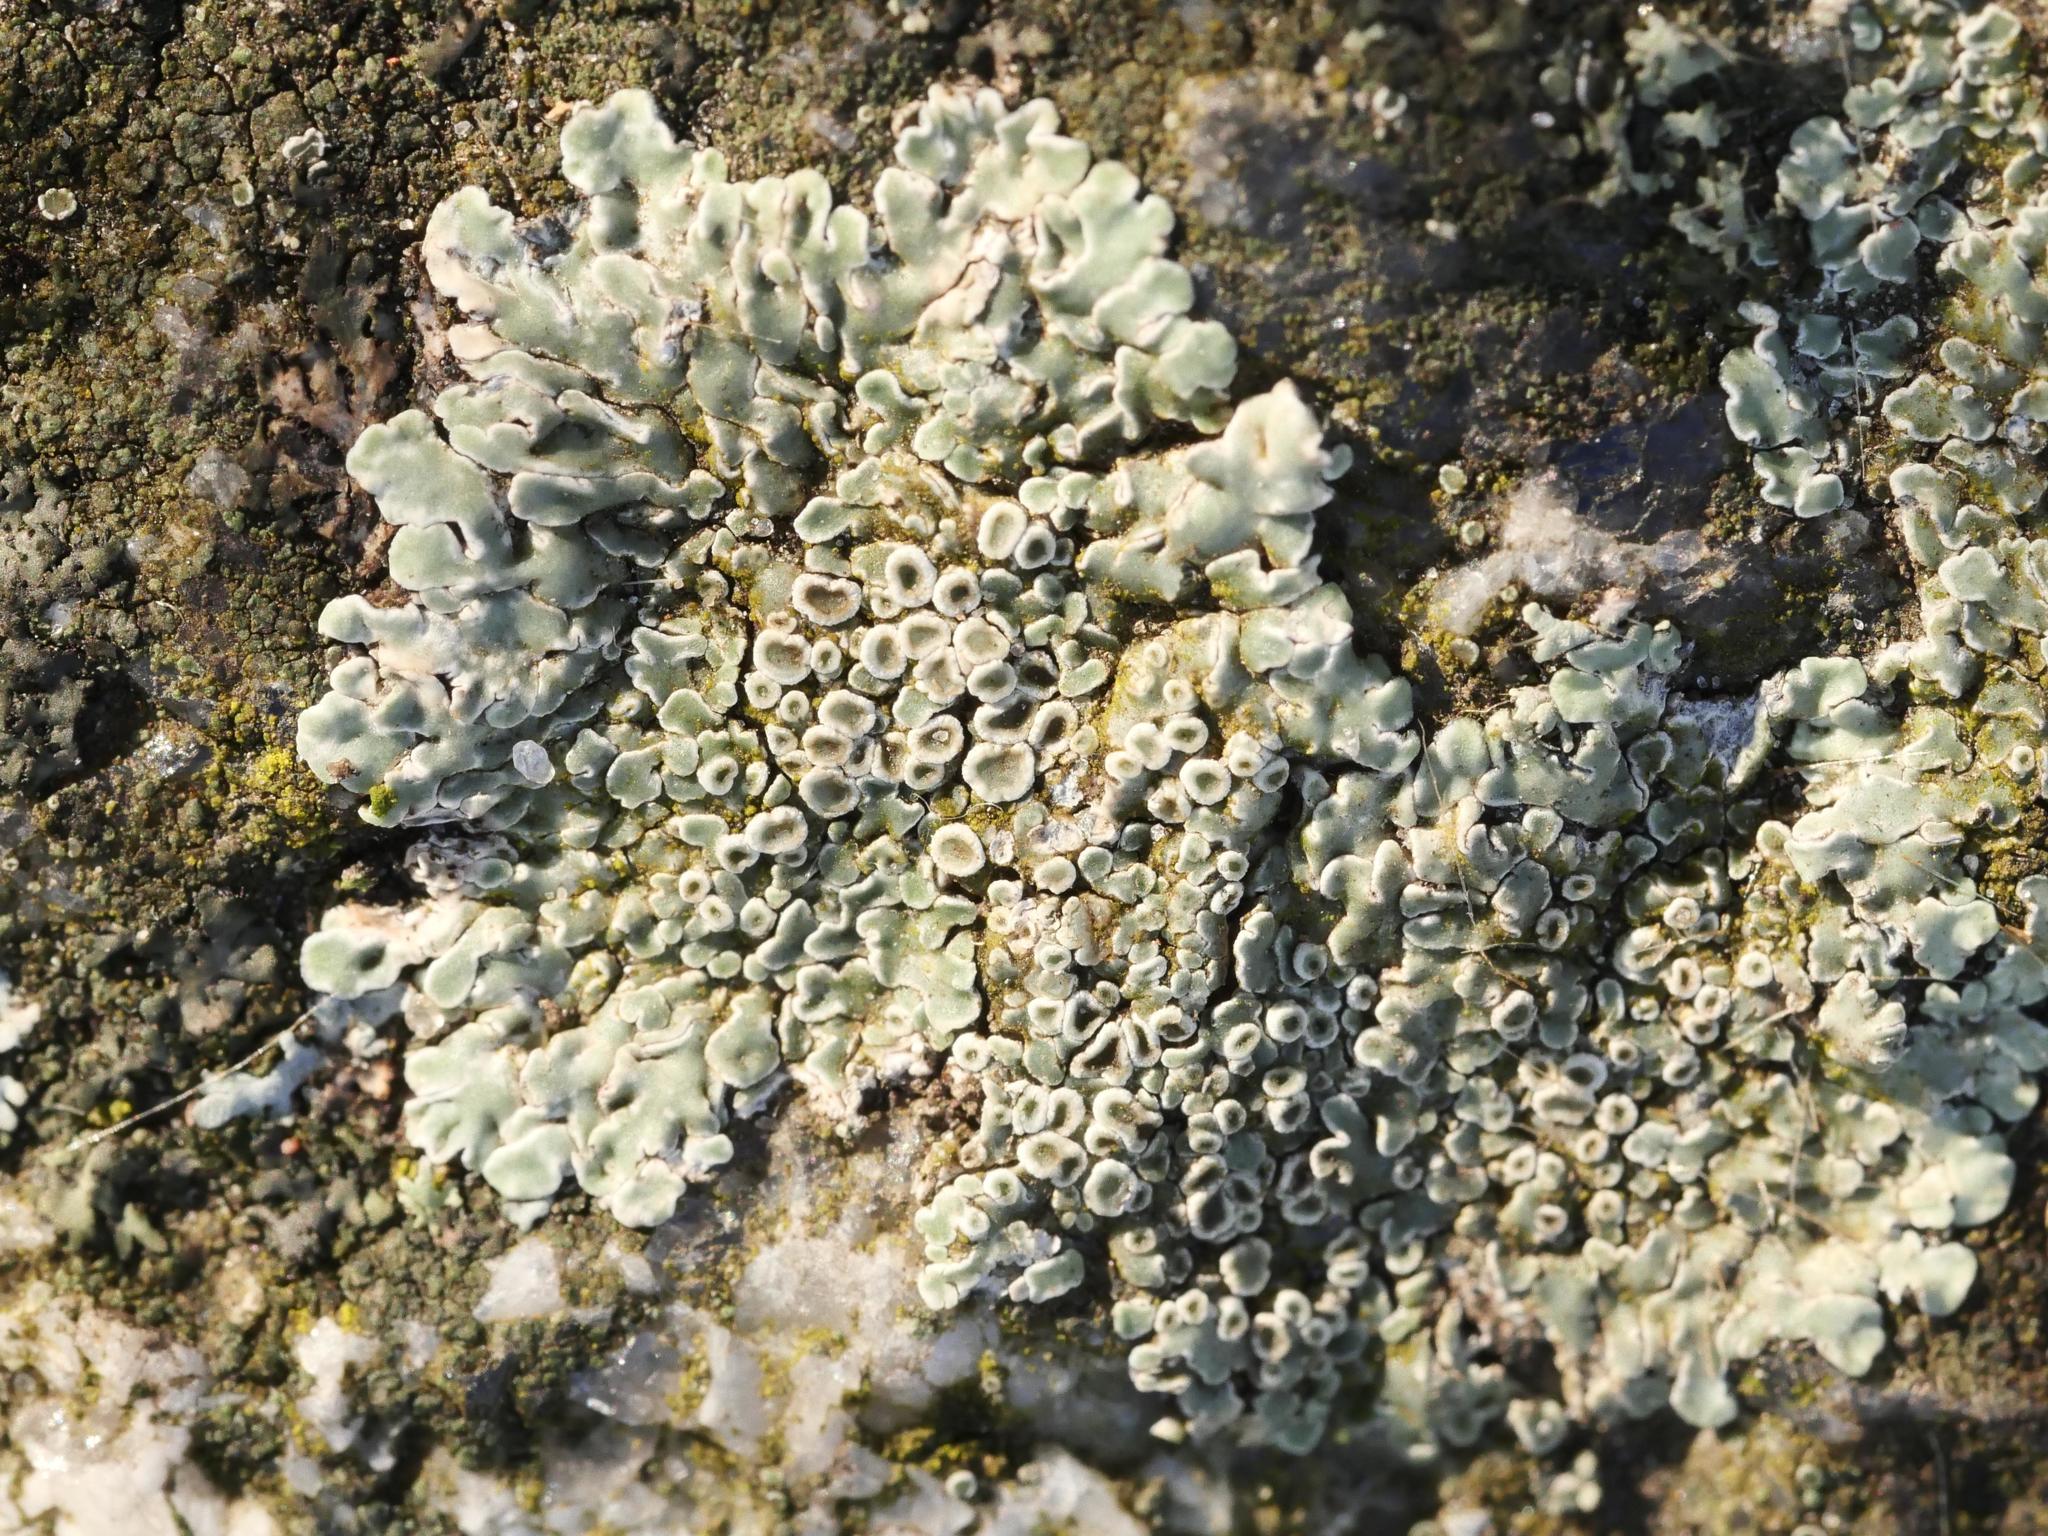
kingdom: Fungi
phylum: Ascomycota
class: Lecanoromycetes
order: Lecanorales
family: Lecanoraceae
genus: Protoparmeliopsis
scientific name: Protoparmeliopsis muralis
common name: Stonewall rim lichen
